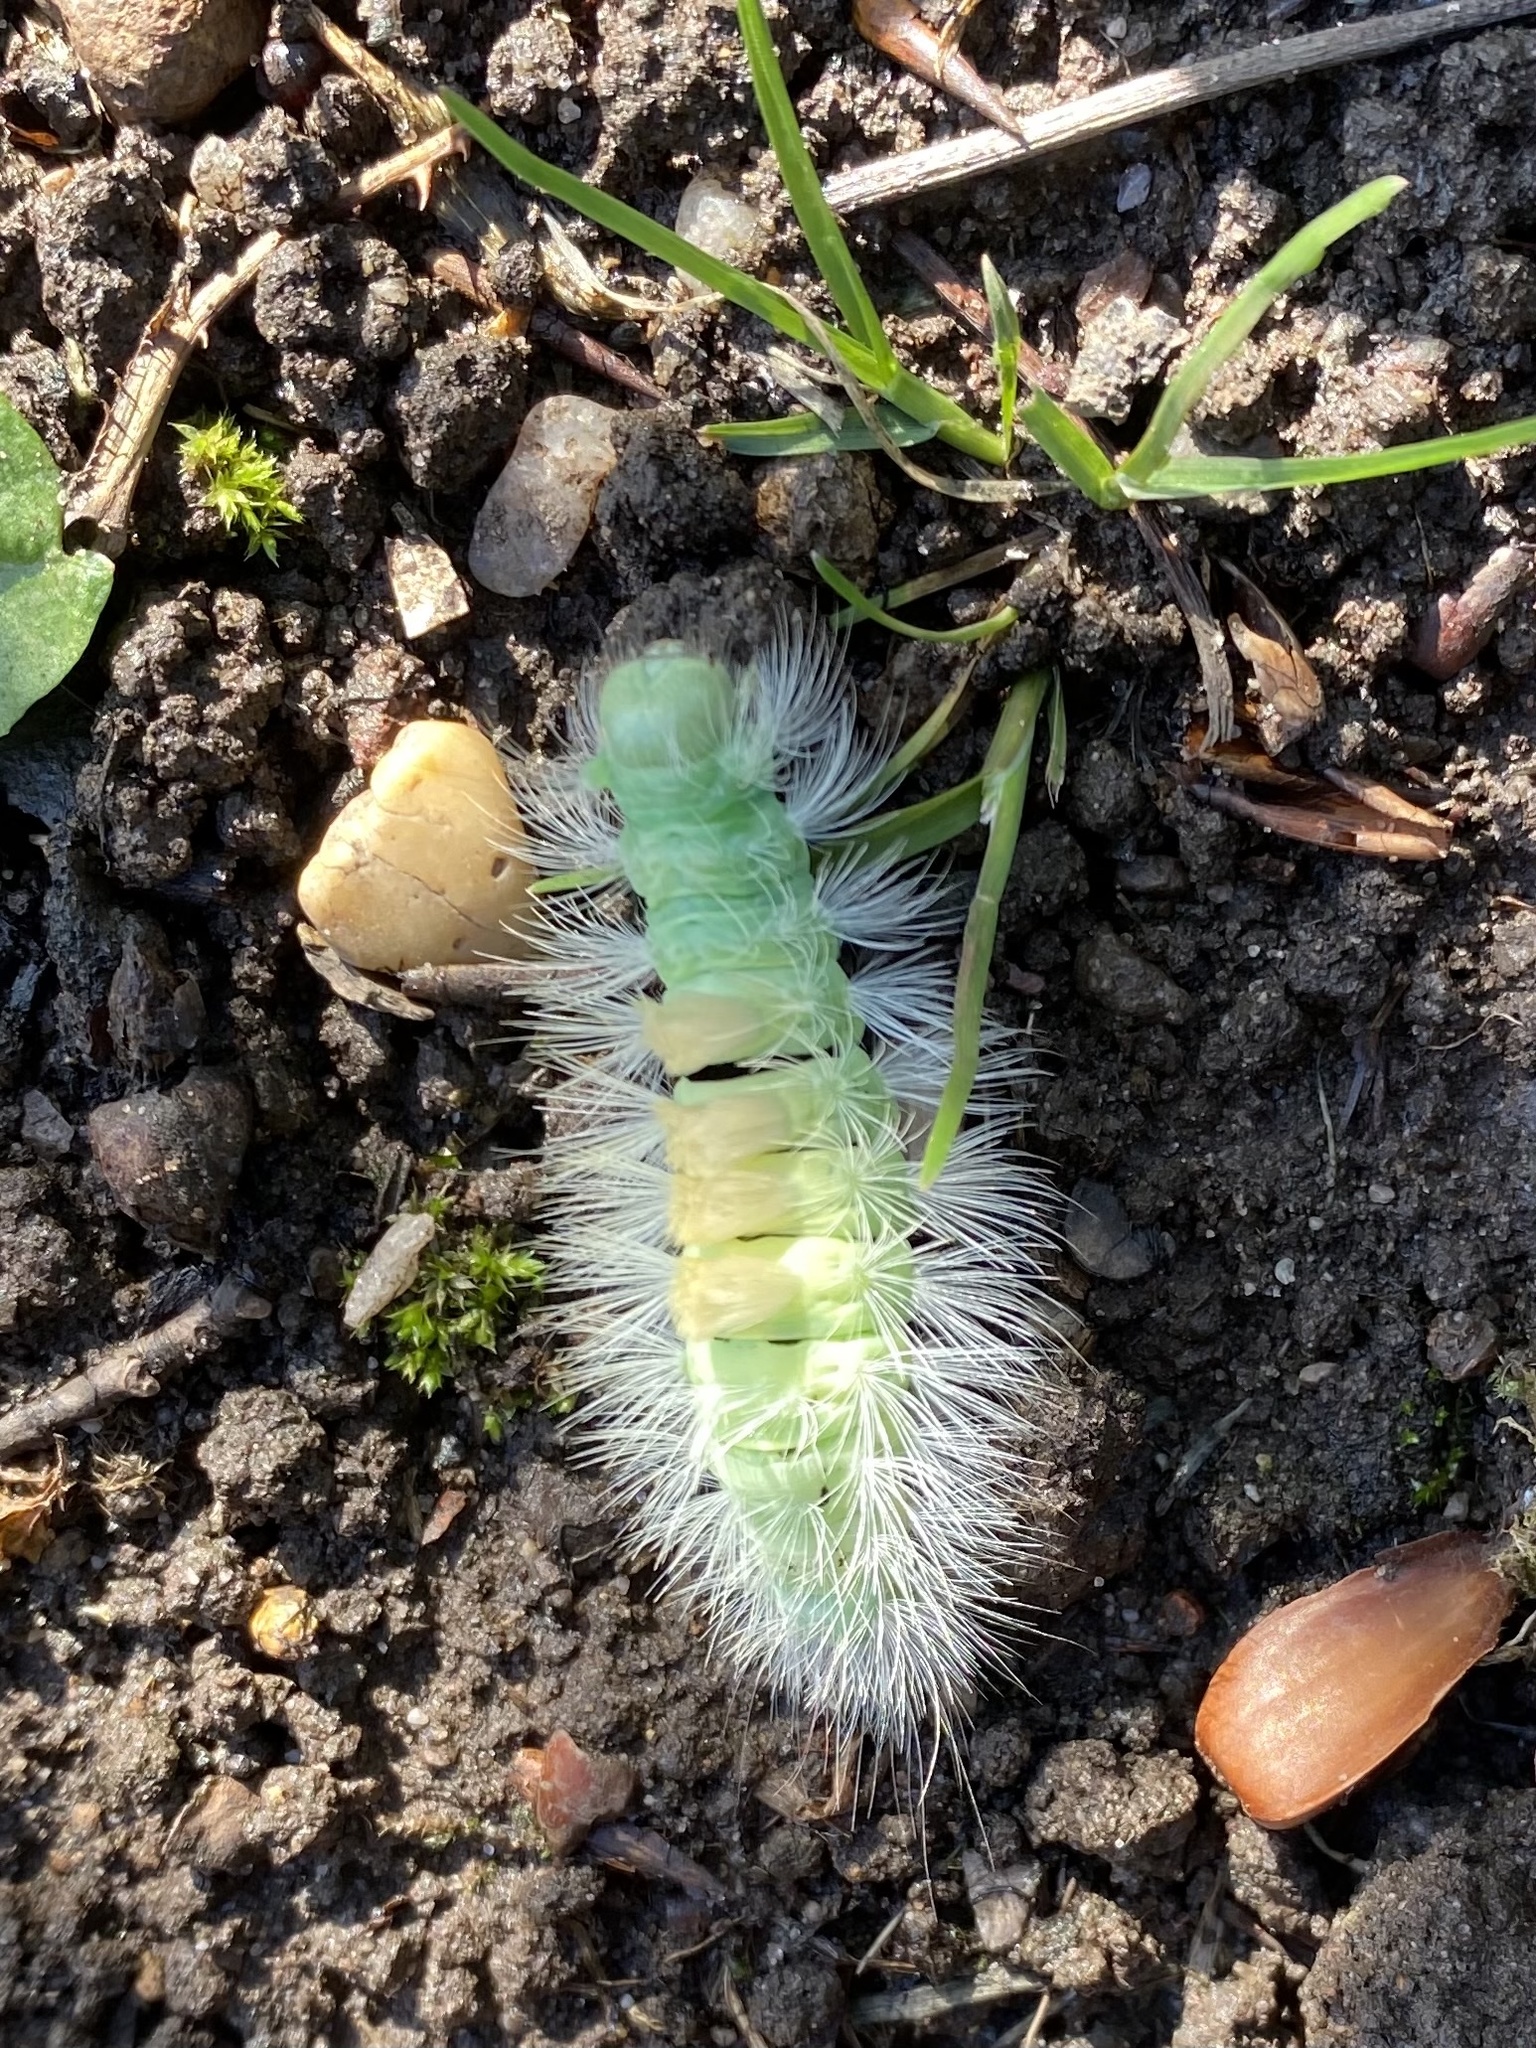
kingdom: Animalia
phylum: Arthropoda
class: Insecta
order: Lepidoptera
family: Erebidae
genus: Calliteara
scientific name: Calliteara pudibunda
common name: Pale tussock
